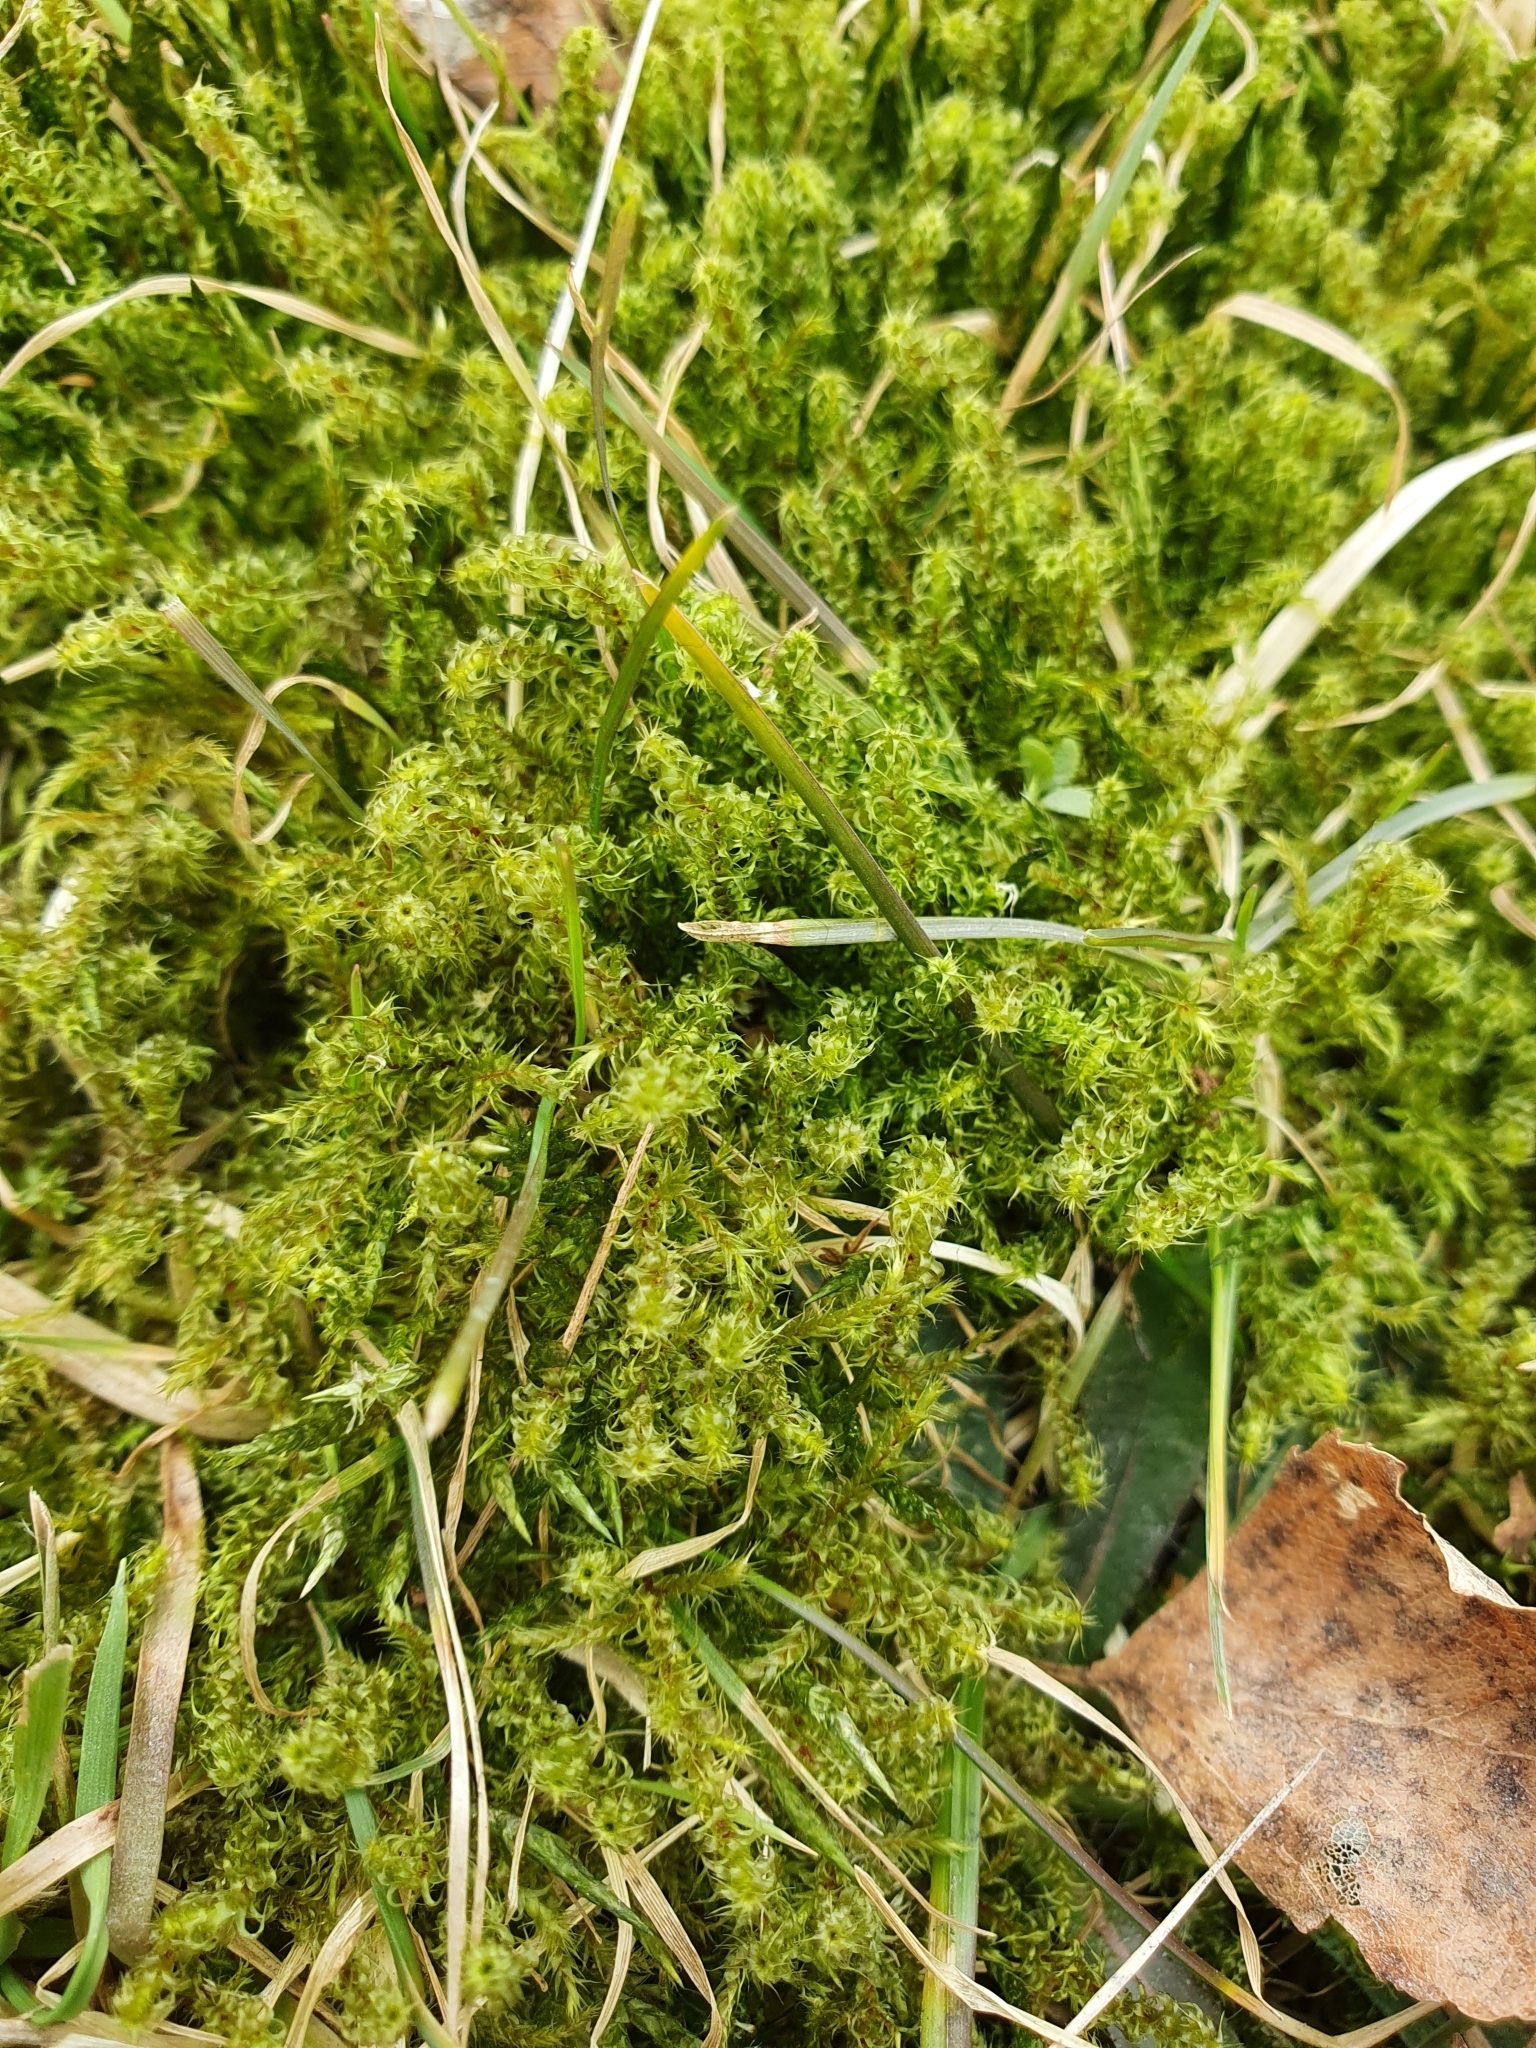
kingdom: Plantae
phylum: Bryophyta
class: Bryopsida
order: Hypnales
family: Hylocomiaceae
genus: Rhytidiadelphus
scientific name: Rhytidiadelphus squarrosus
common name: Springy turf-moss
